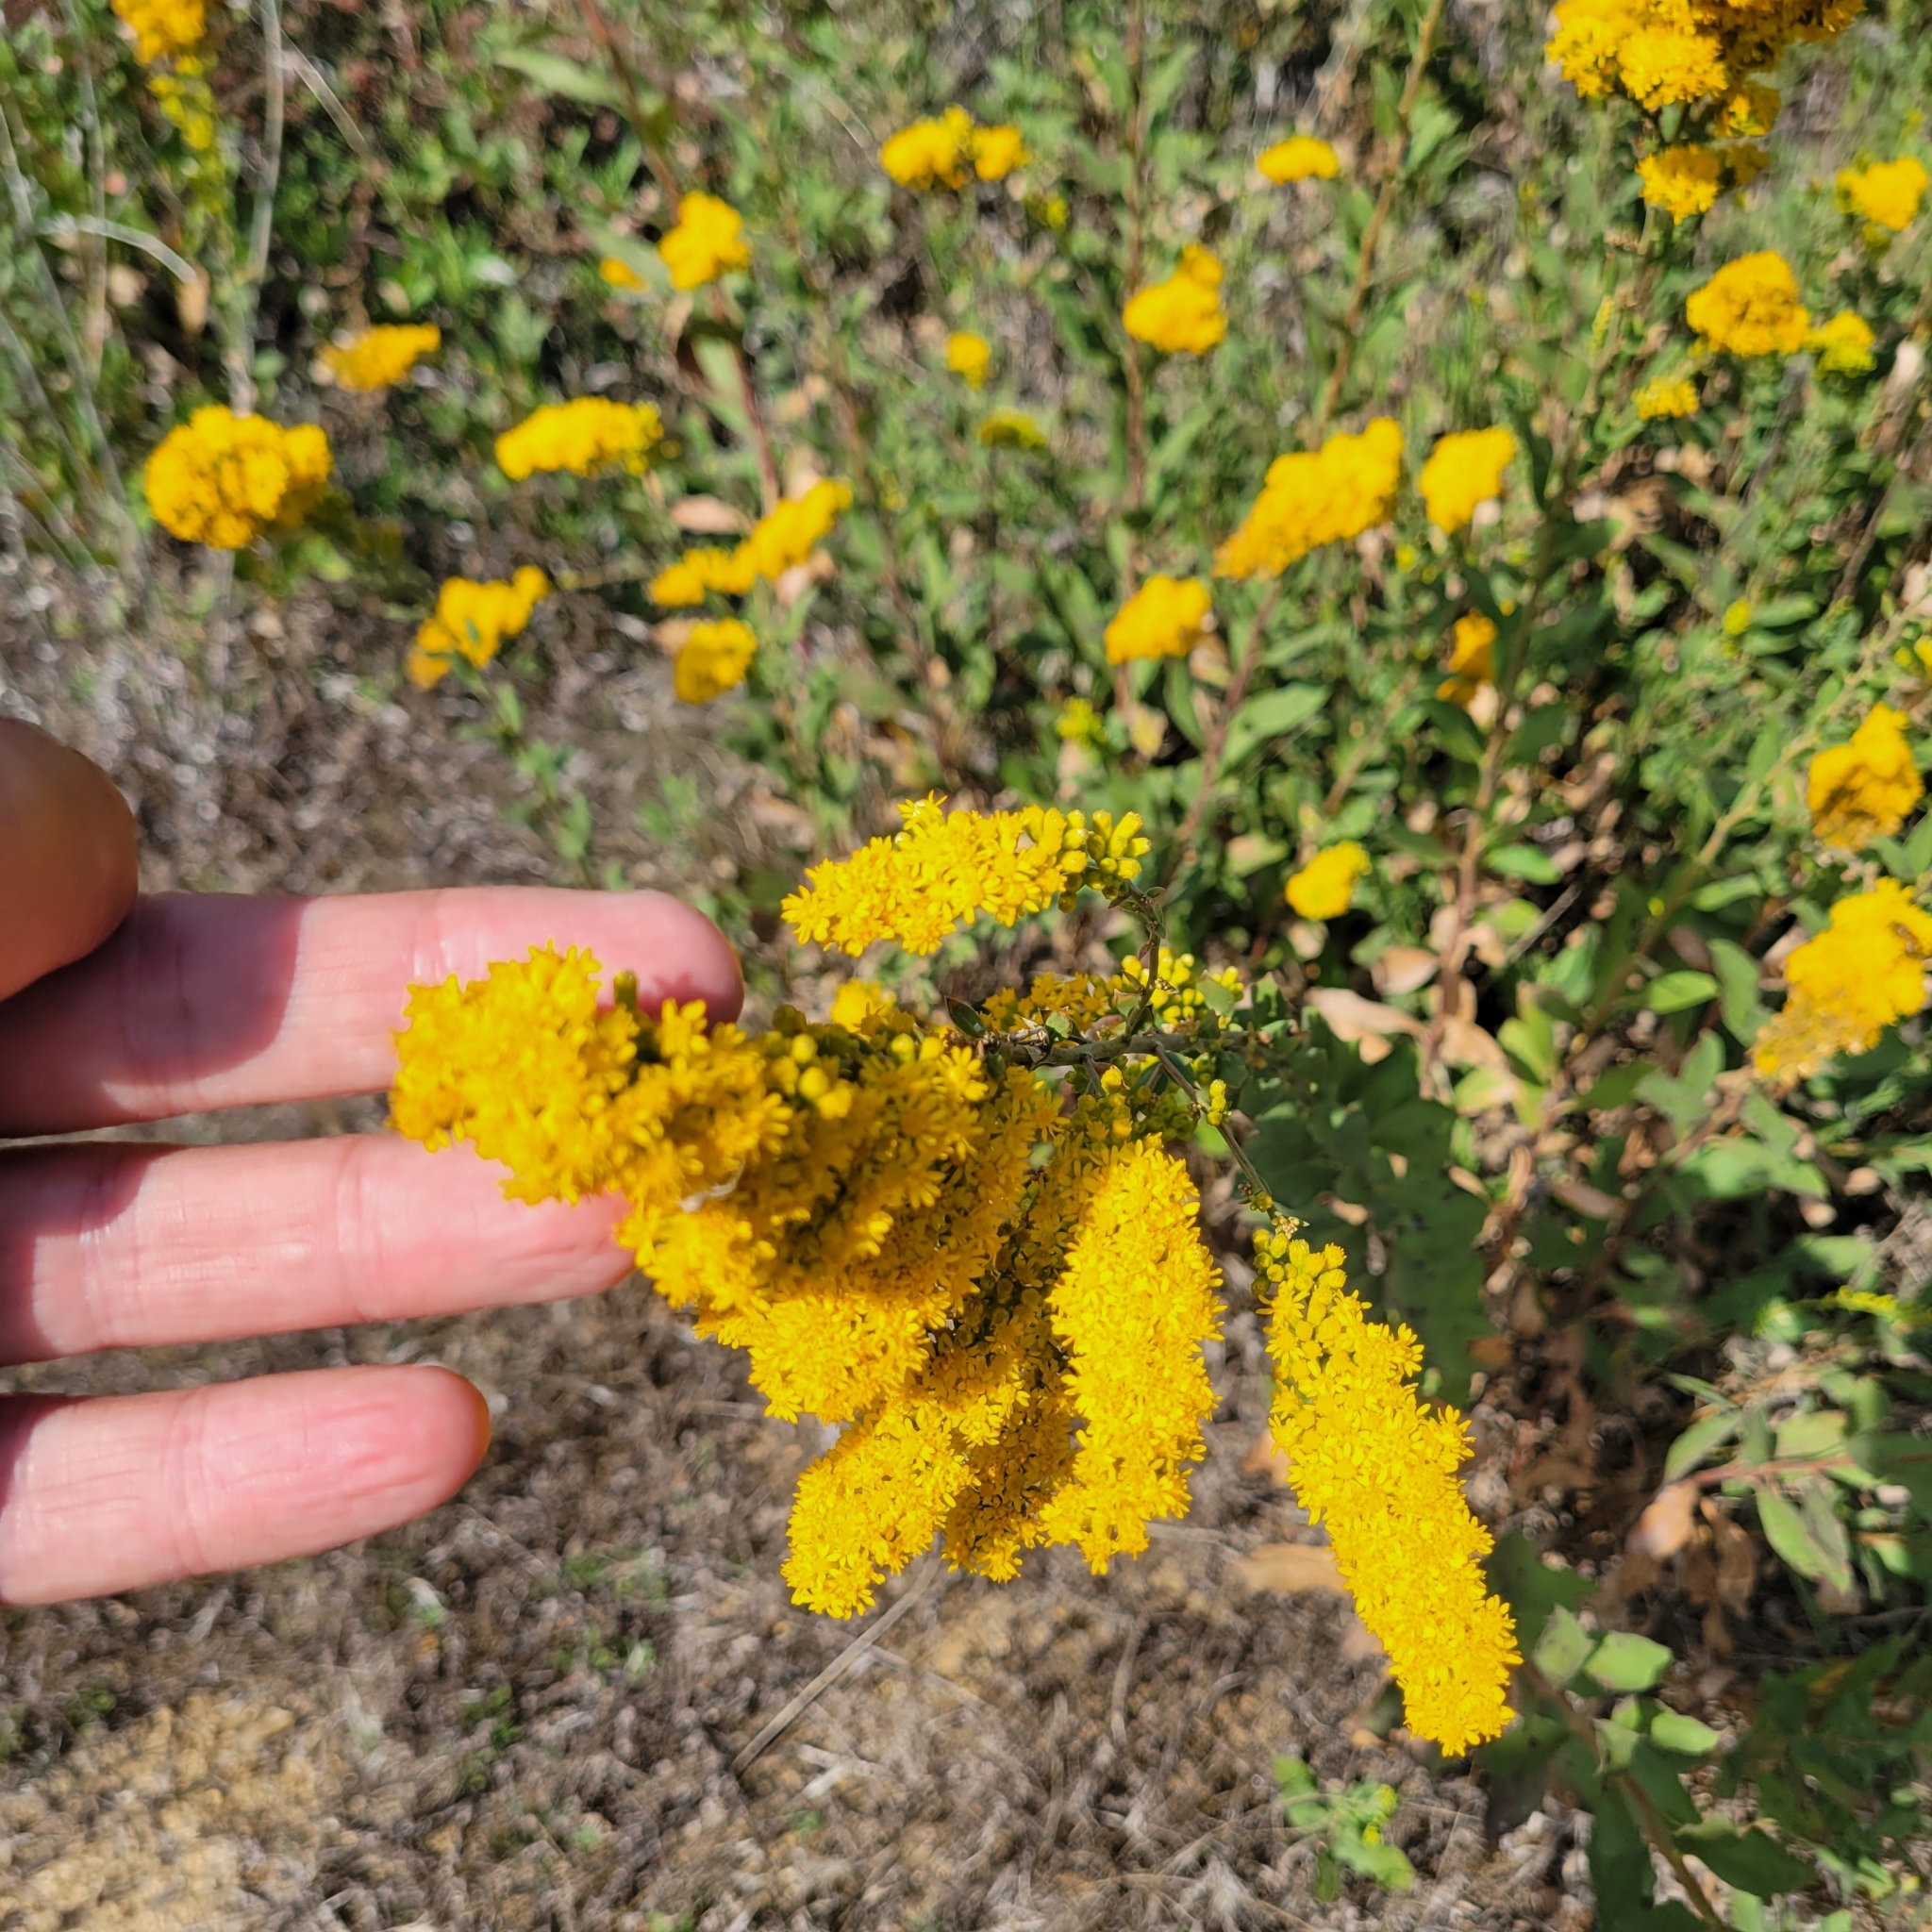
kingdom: Plantae
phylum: Tracheophyta
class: Magnoliopsida
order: Asterales
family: Asteraceae
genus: Solidago
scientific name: Solidago velutina
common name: Three-nerve goldenrod
